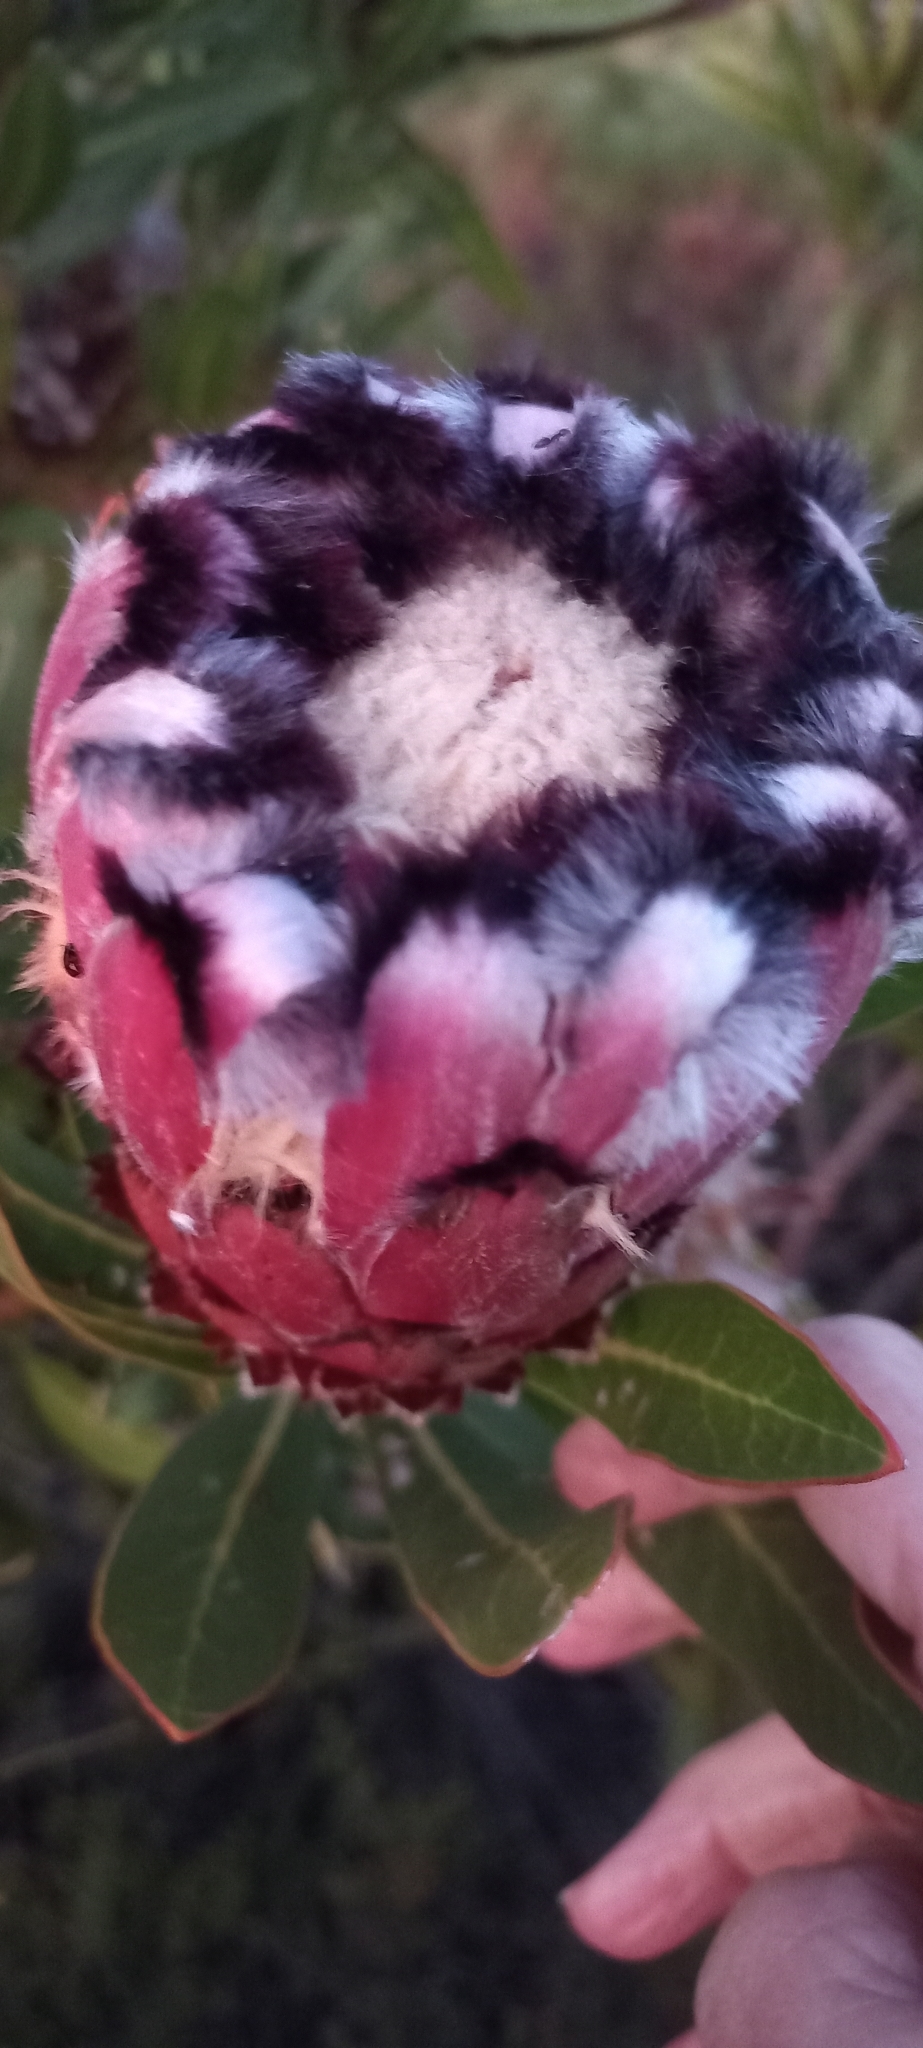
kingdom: Plantae
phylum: Tracheophyta
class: Magnoliopsida
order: Proteales
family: Proteaceae
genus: Protea
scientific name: Protea neriifolia
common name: Blue sugarbush
